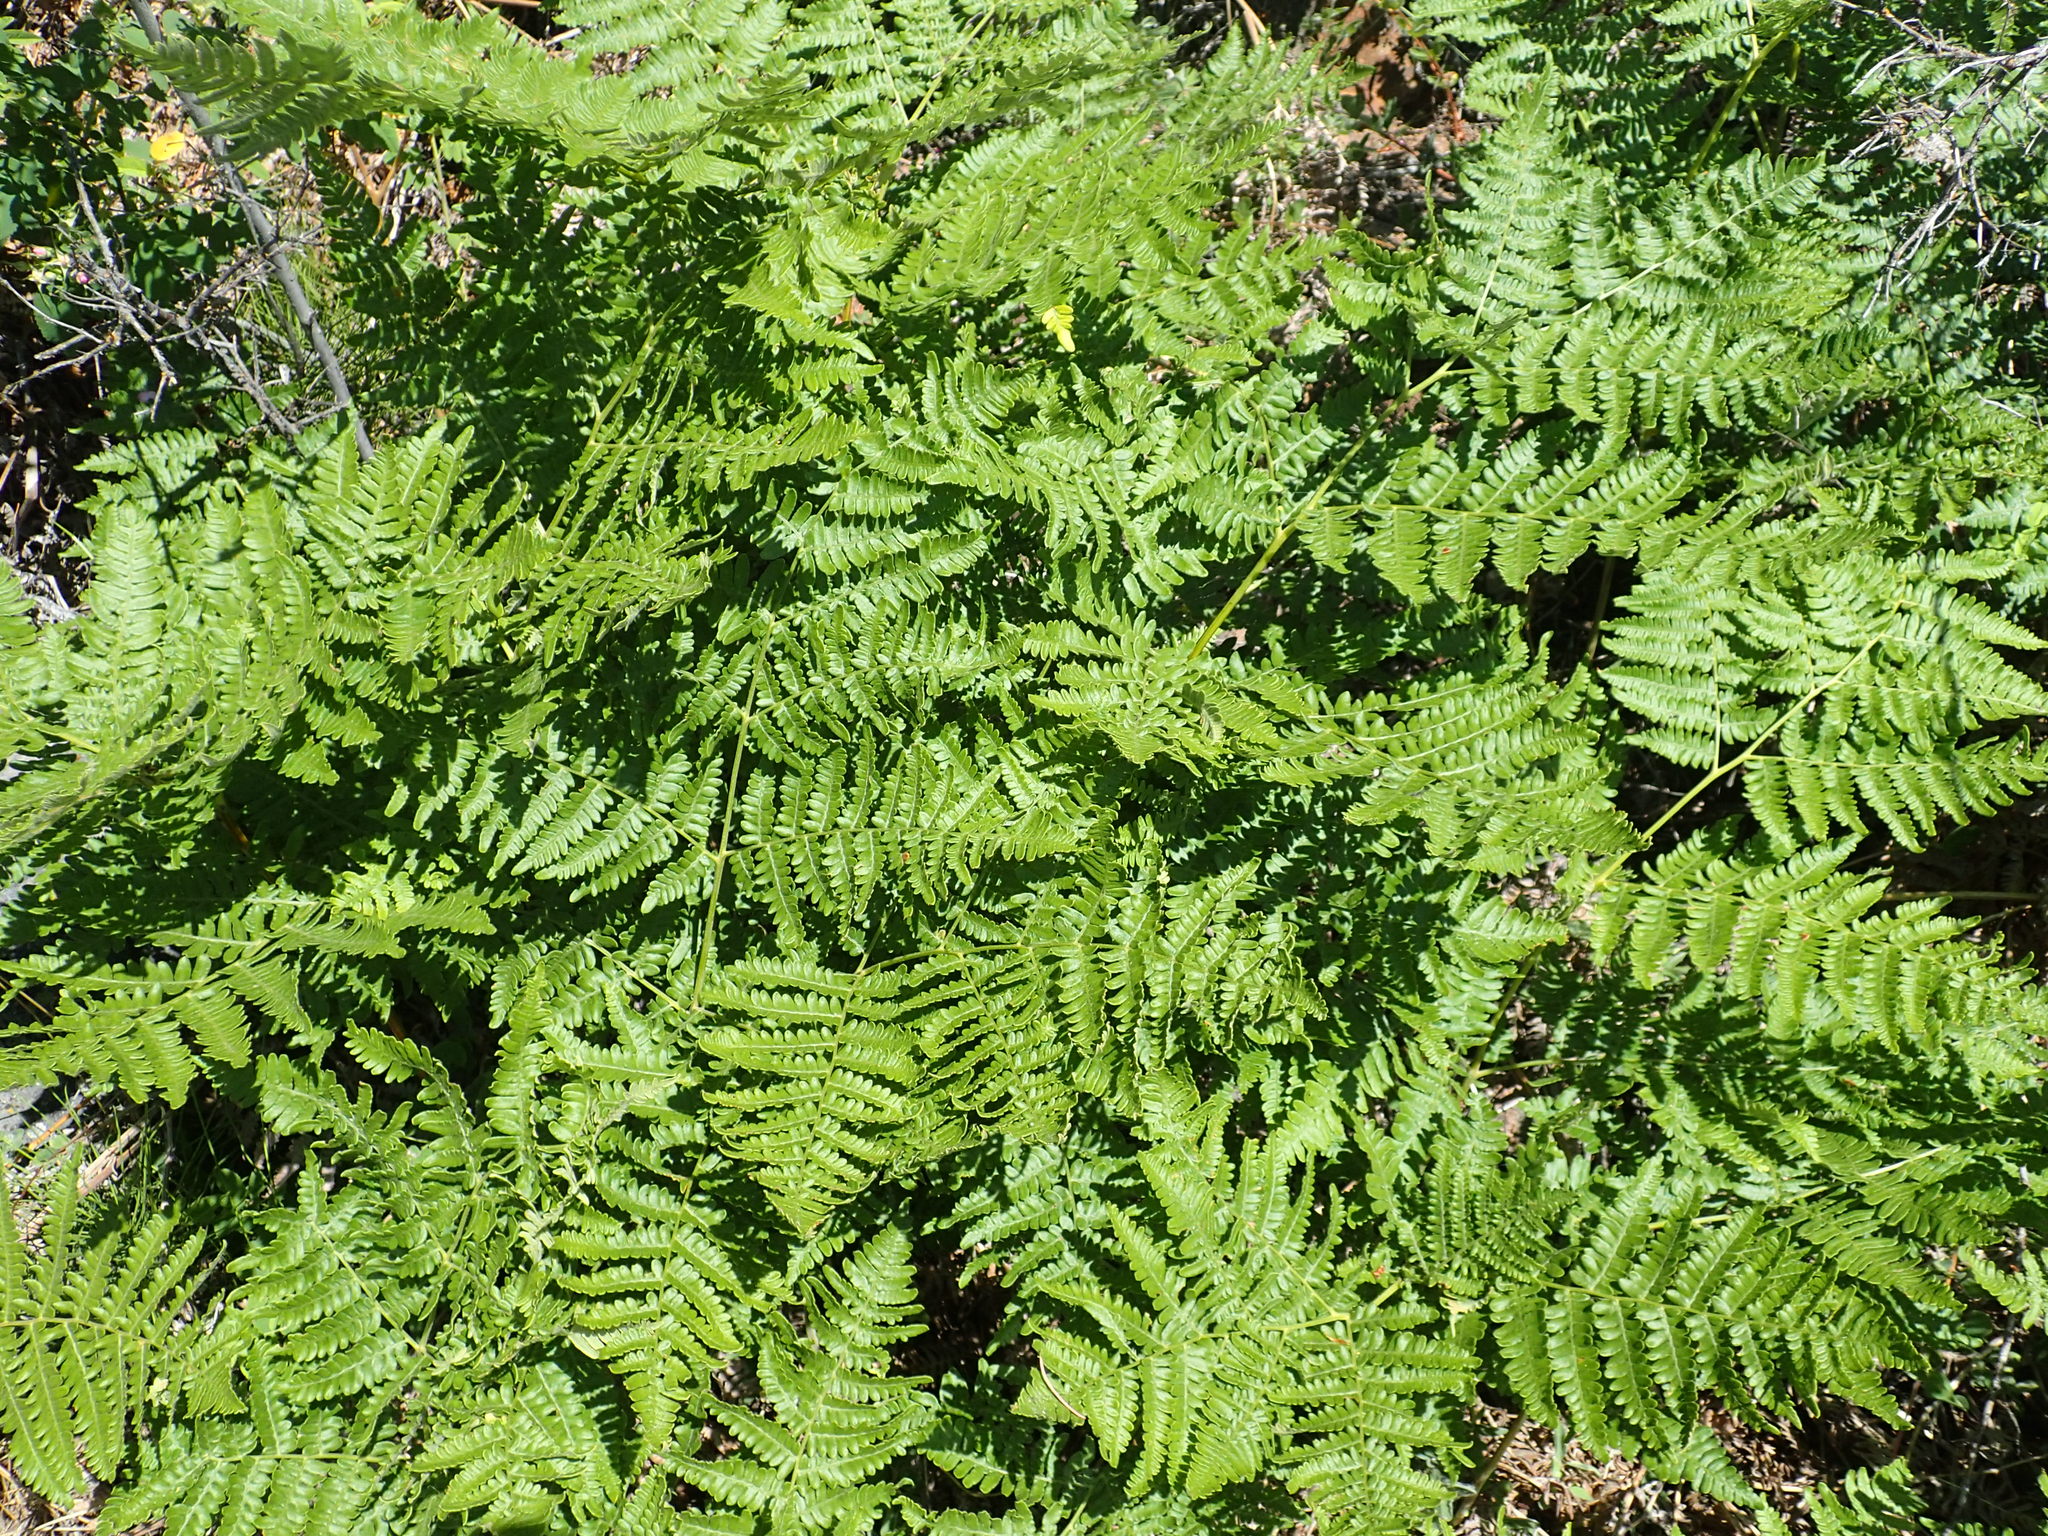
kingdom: Plantae
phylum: Tracheophyta
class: Polypodiopsida
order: Polypodiales
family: Dennstaedtiaceae
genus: Pteridium
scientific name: Pteridium aquilinum
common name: Bracken
